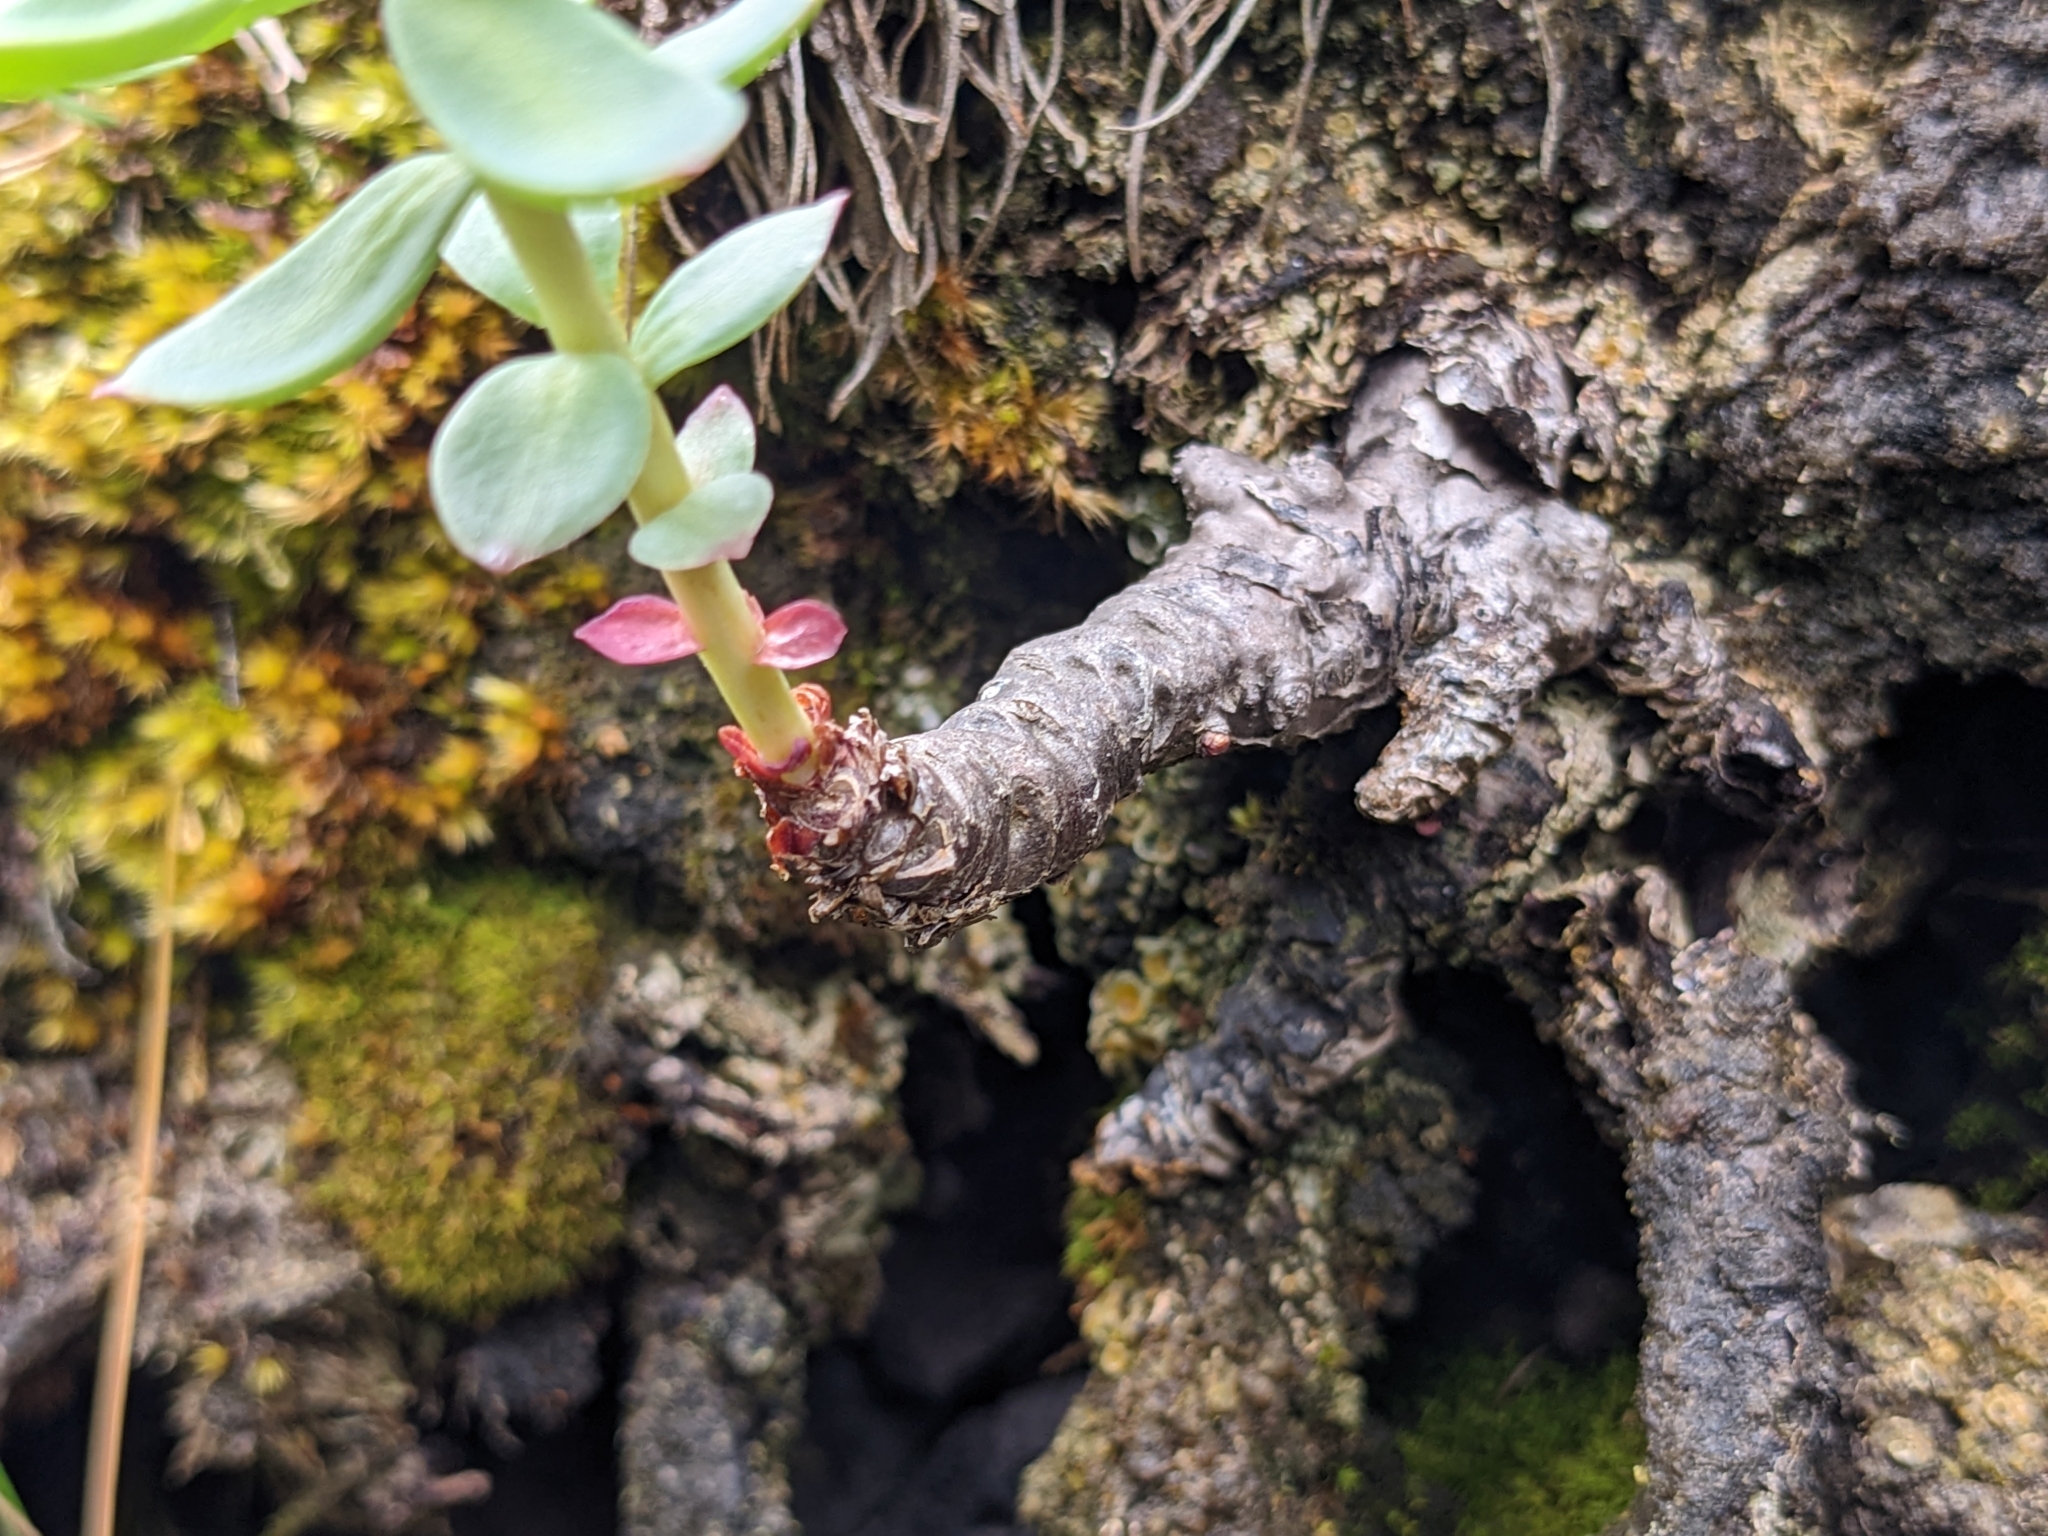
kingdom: Plantae
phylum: Tracheophyta
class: Magnoliopsida
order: Saxifragales
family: Crassulaceae
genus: Rhodiola
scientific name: Rhodiola rosea
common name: Roseroot
